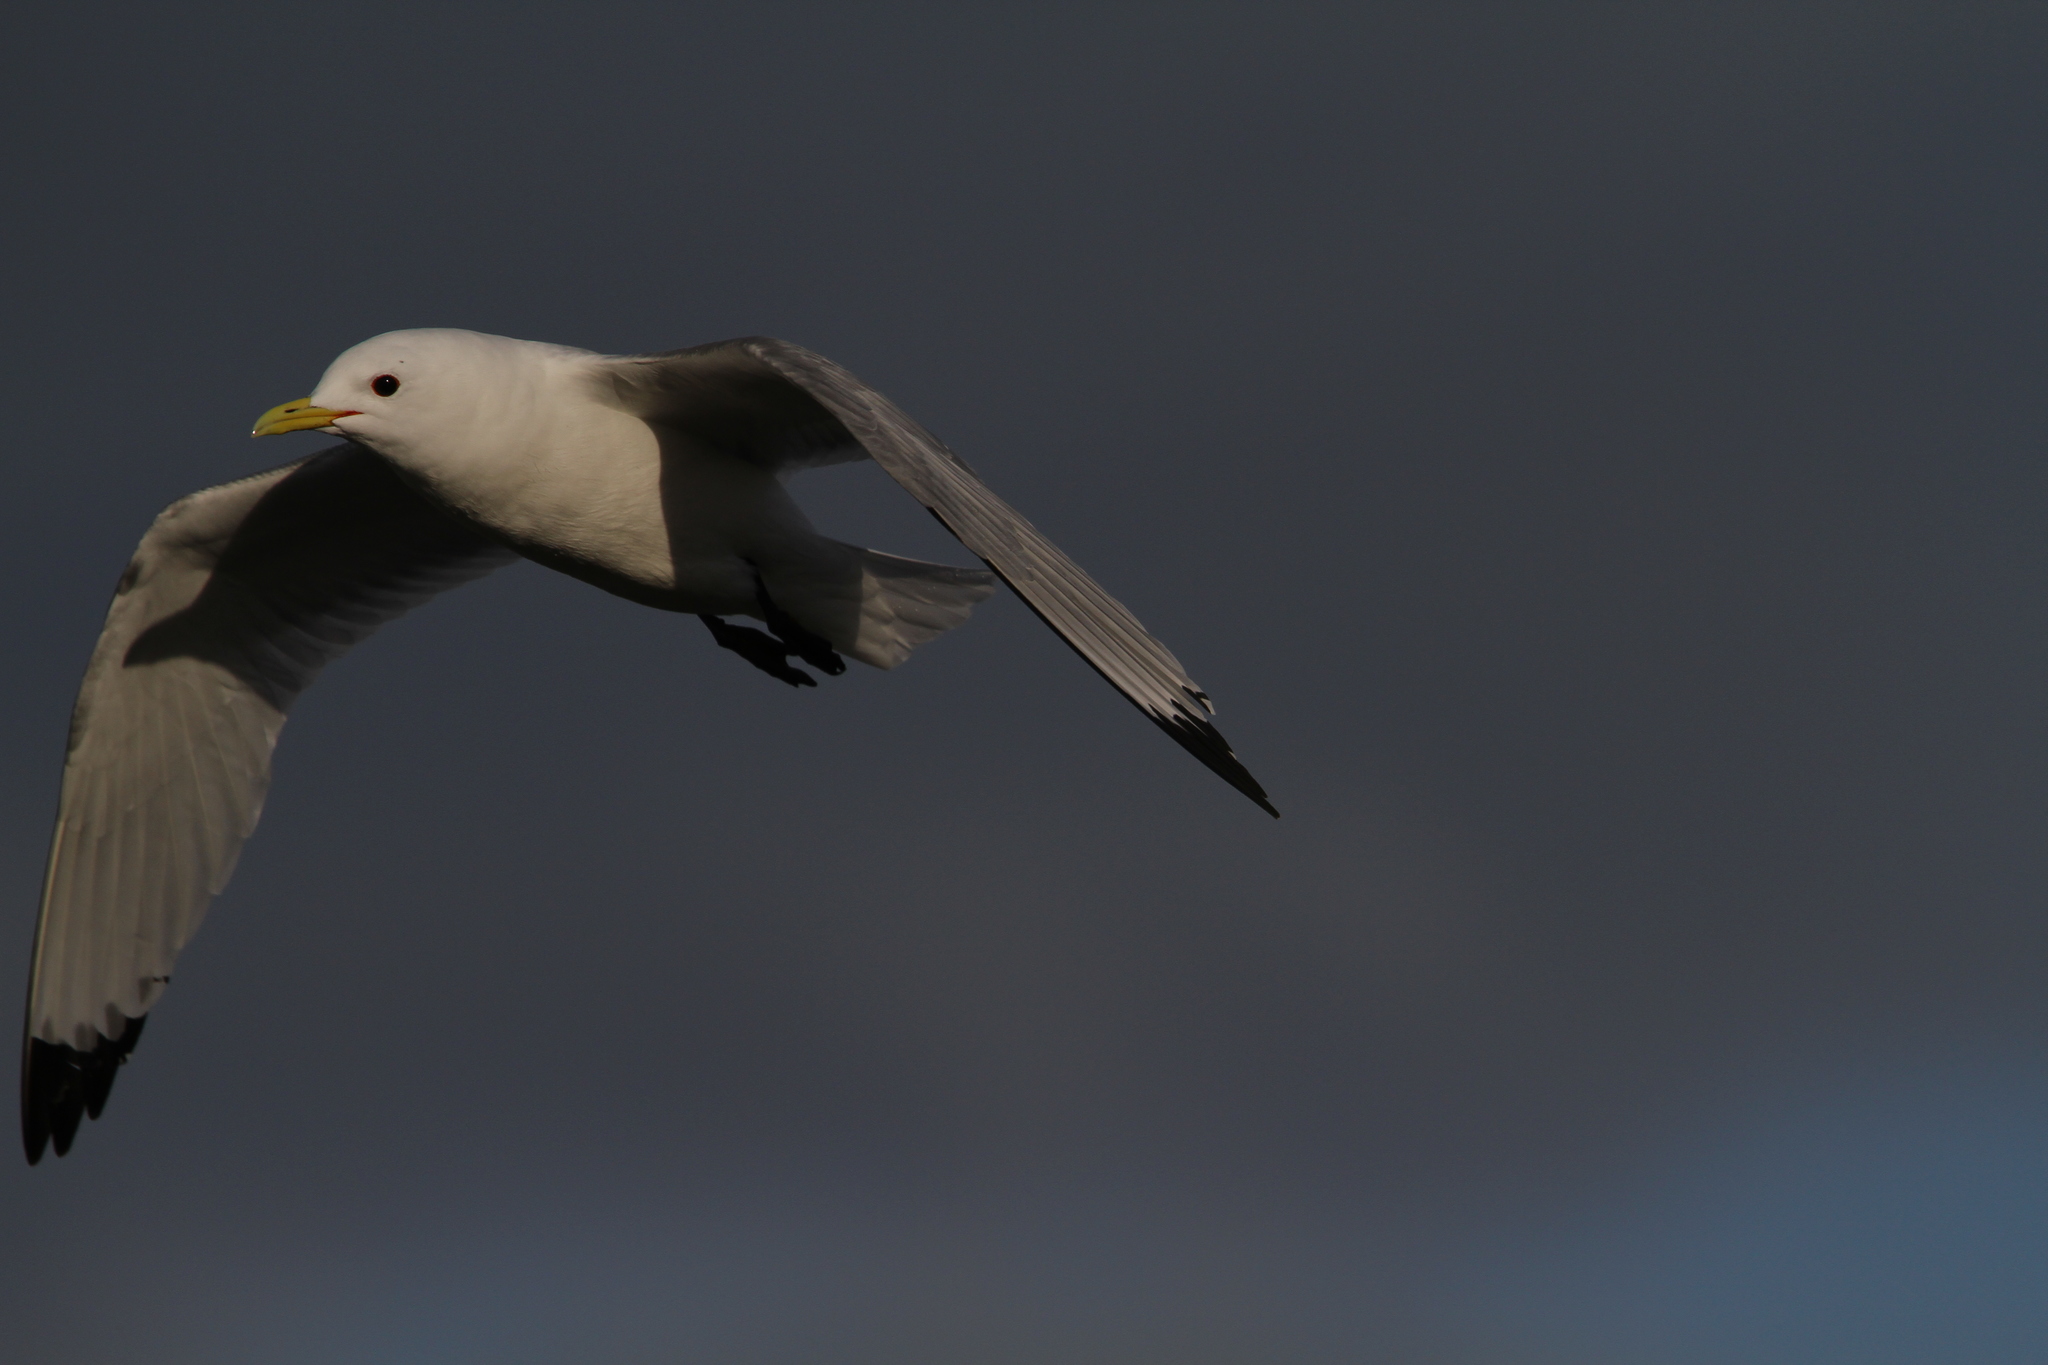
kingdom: Animalia
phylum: Chordata
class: Aves
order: Charadriiformes
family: Laridae
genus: Rissa
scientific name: Rissa tridactyla
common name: Black-legged kittiwake
